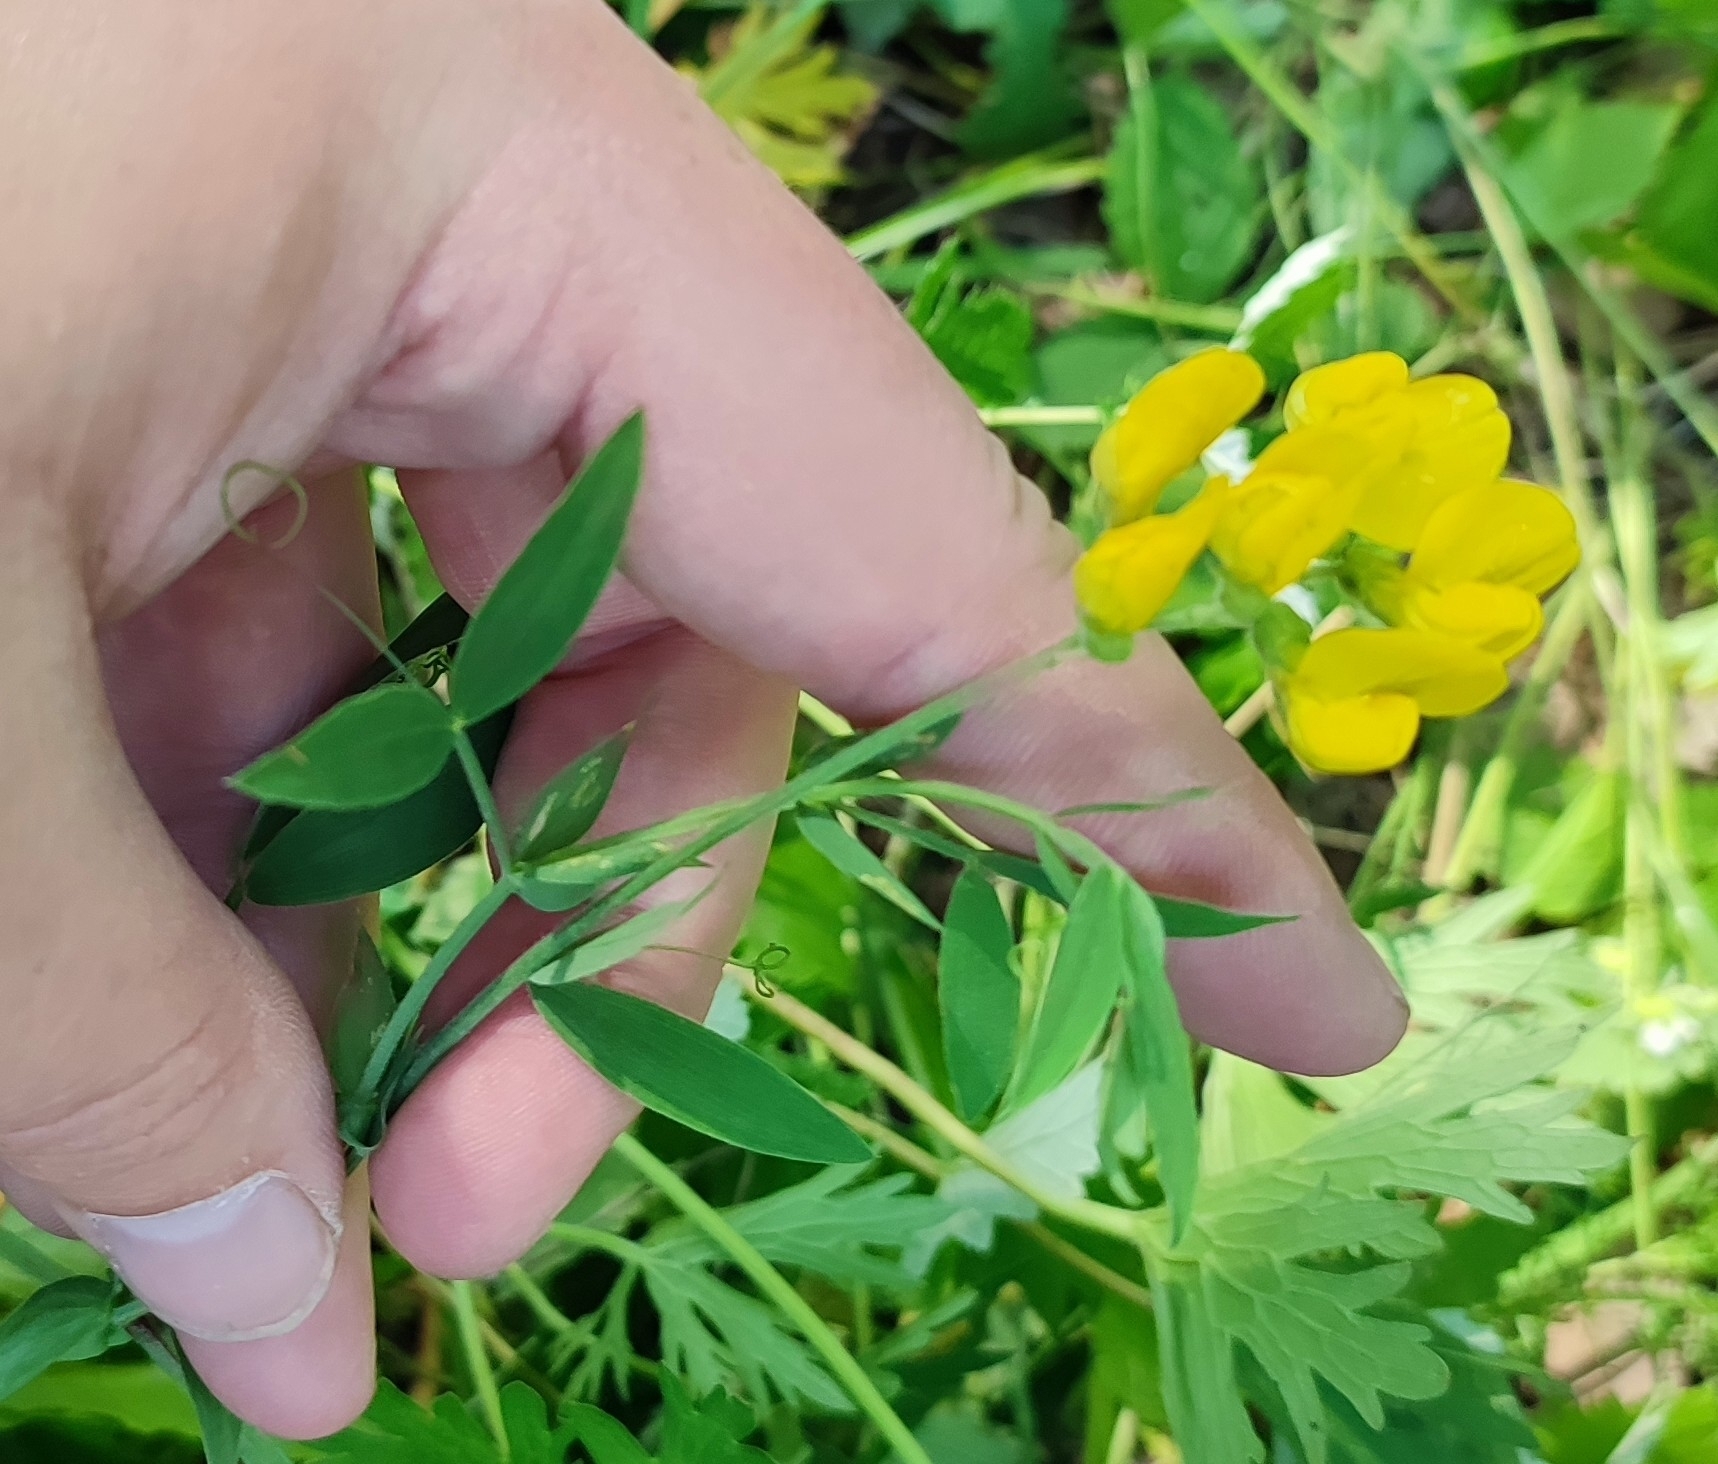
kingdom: Plantae
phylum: Tracheophyta
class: Magnoliopsida
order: Fabales
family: Fabaceae
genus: Lathyrus
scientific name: Lathyrus pratensis
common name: Meadow vetchling
